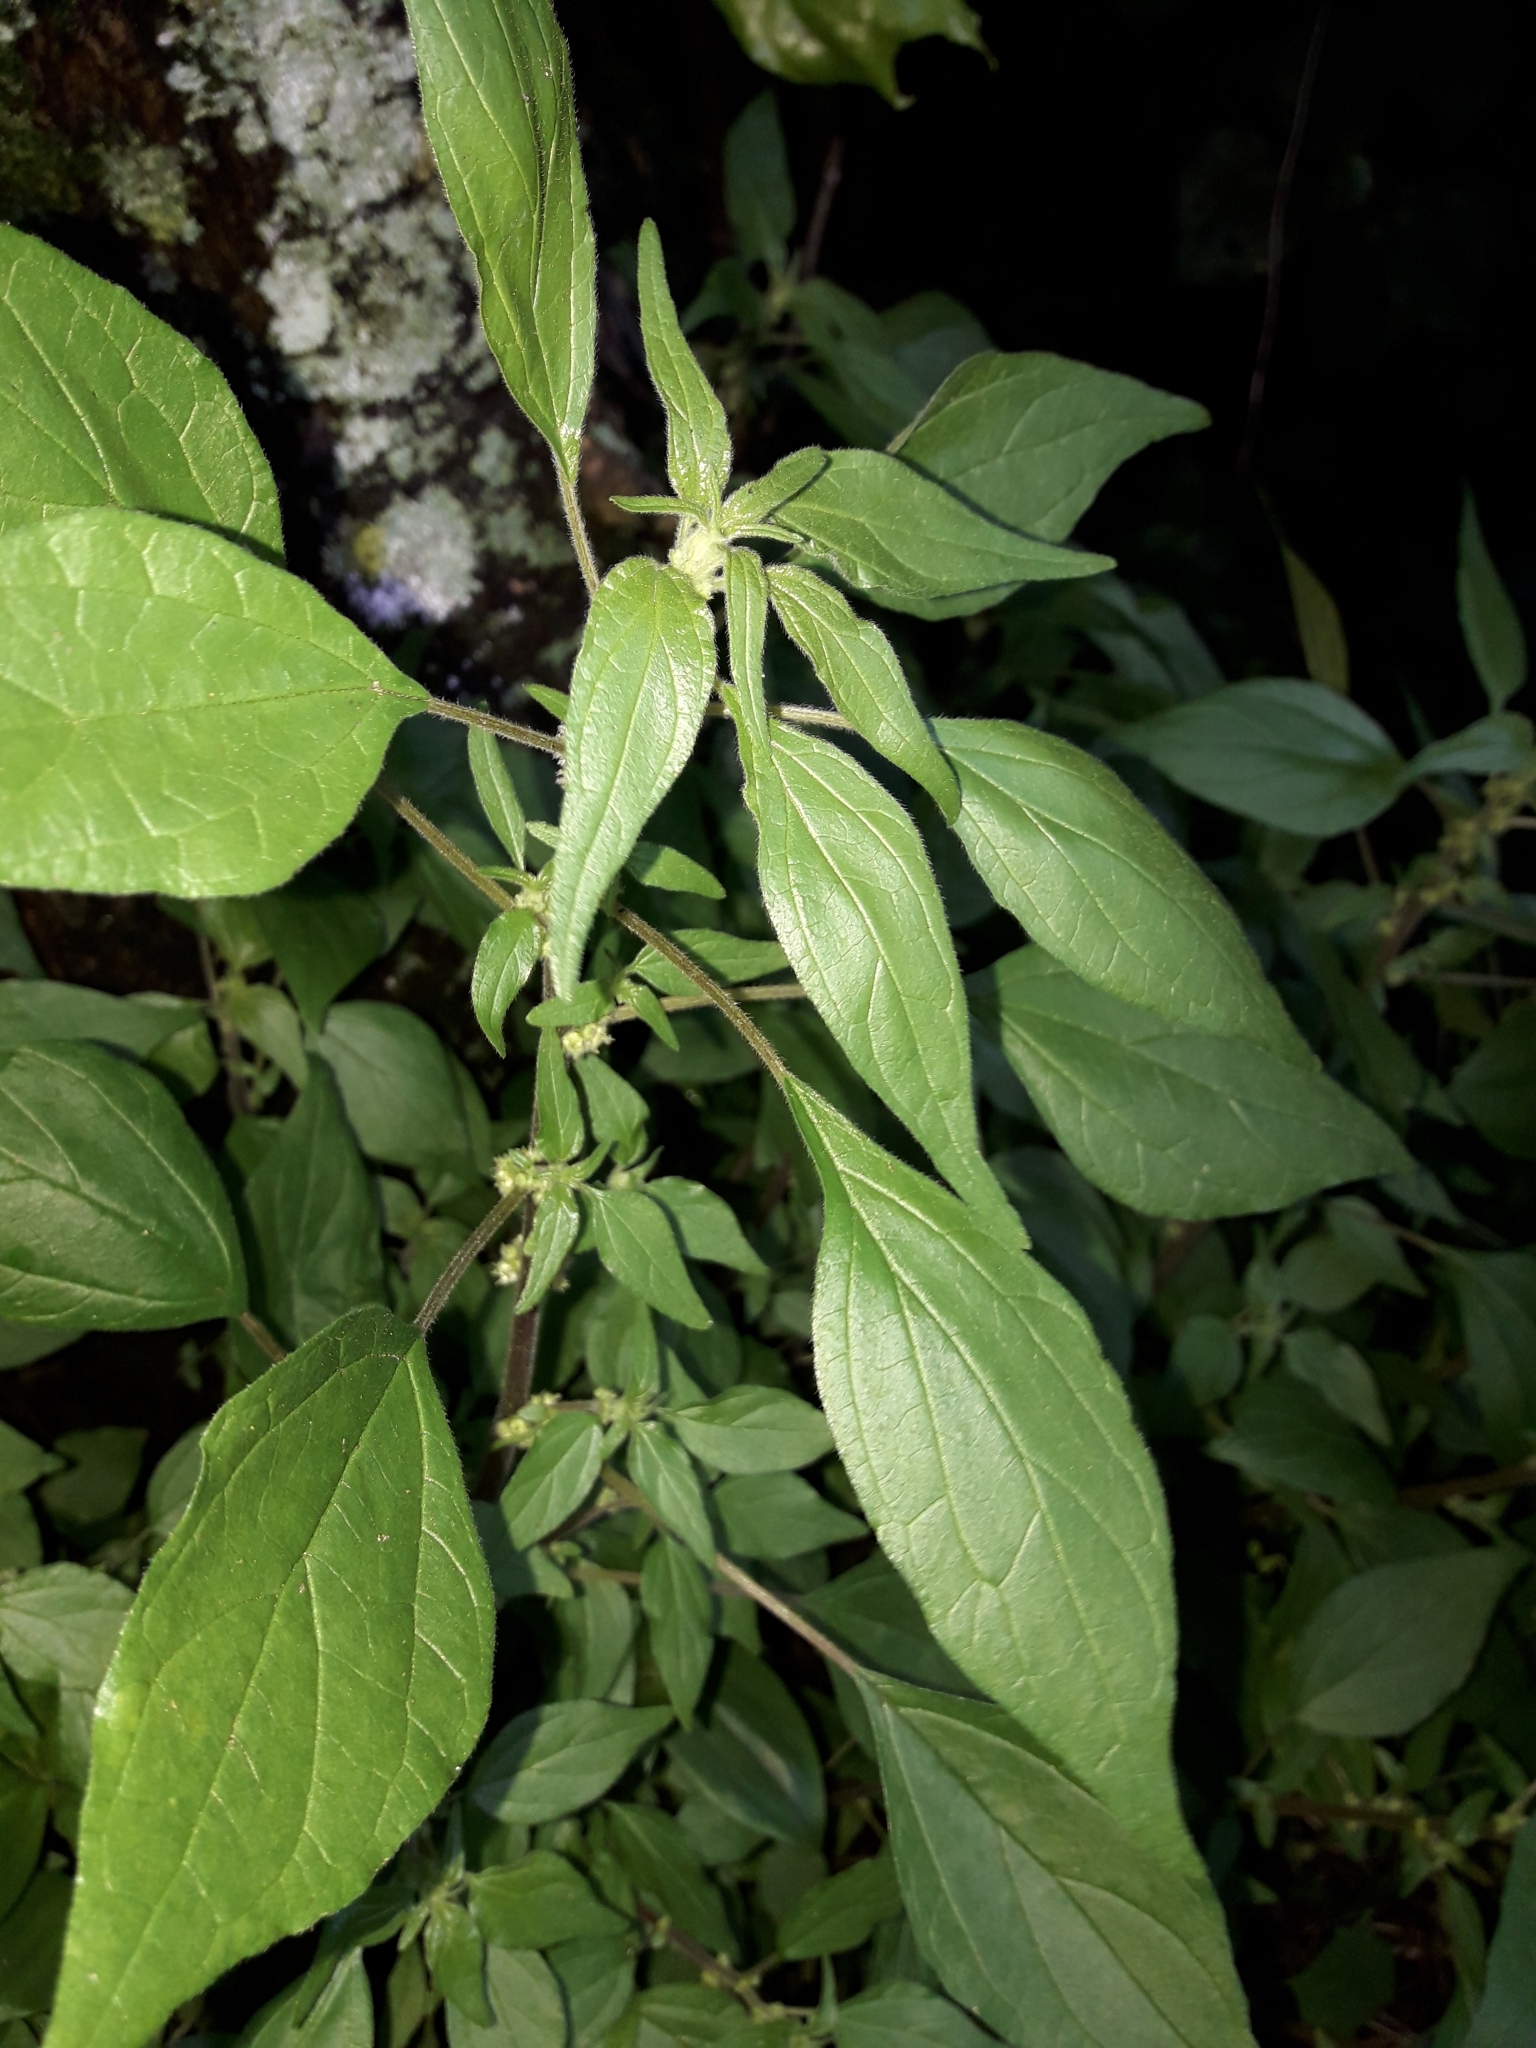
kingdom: Plantae
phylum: Tracheophyta
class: Magnoliopsida
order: Rosales
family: Urticaceae
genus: Parietaria
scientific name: Parietaria judaica
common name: Pellitory-of-the-wall
